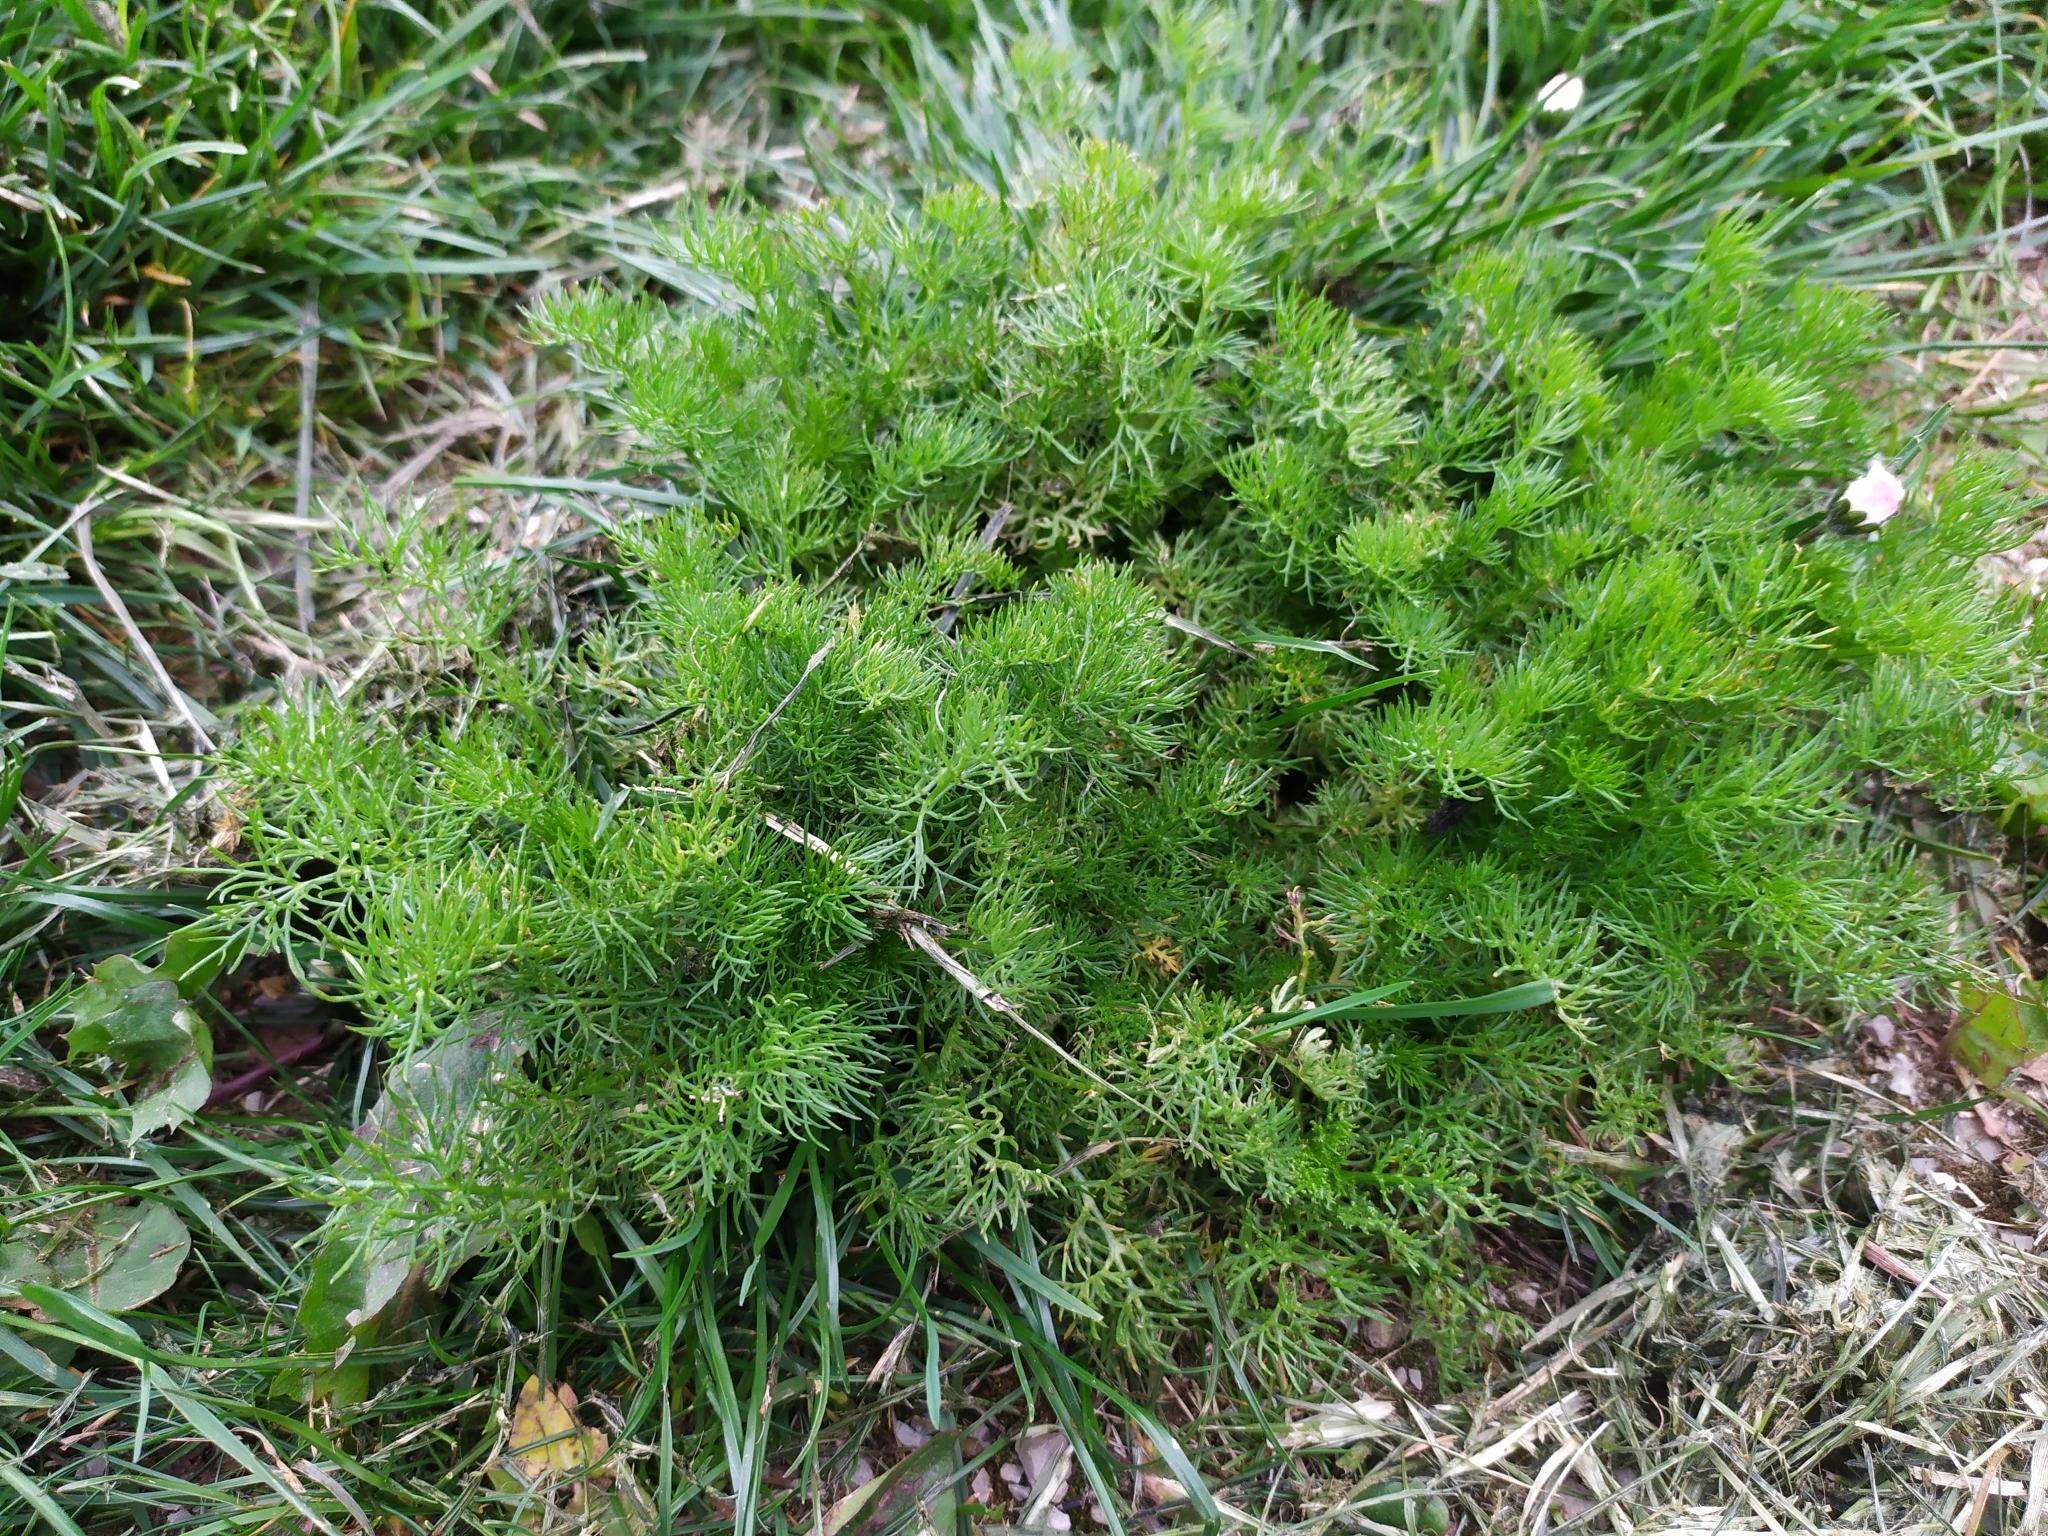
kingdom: Plantae
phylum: Tracheophyta
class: Magnoliopsida
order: Asterales
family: Asteraceae
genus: Tripleurospermum
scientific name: Tripleurospermum inodorum
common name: Scentless mayweed
